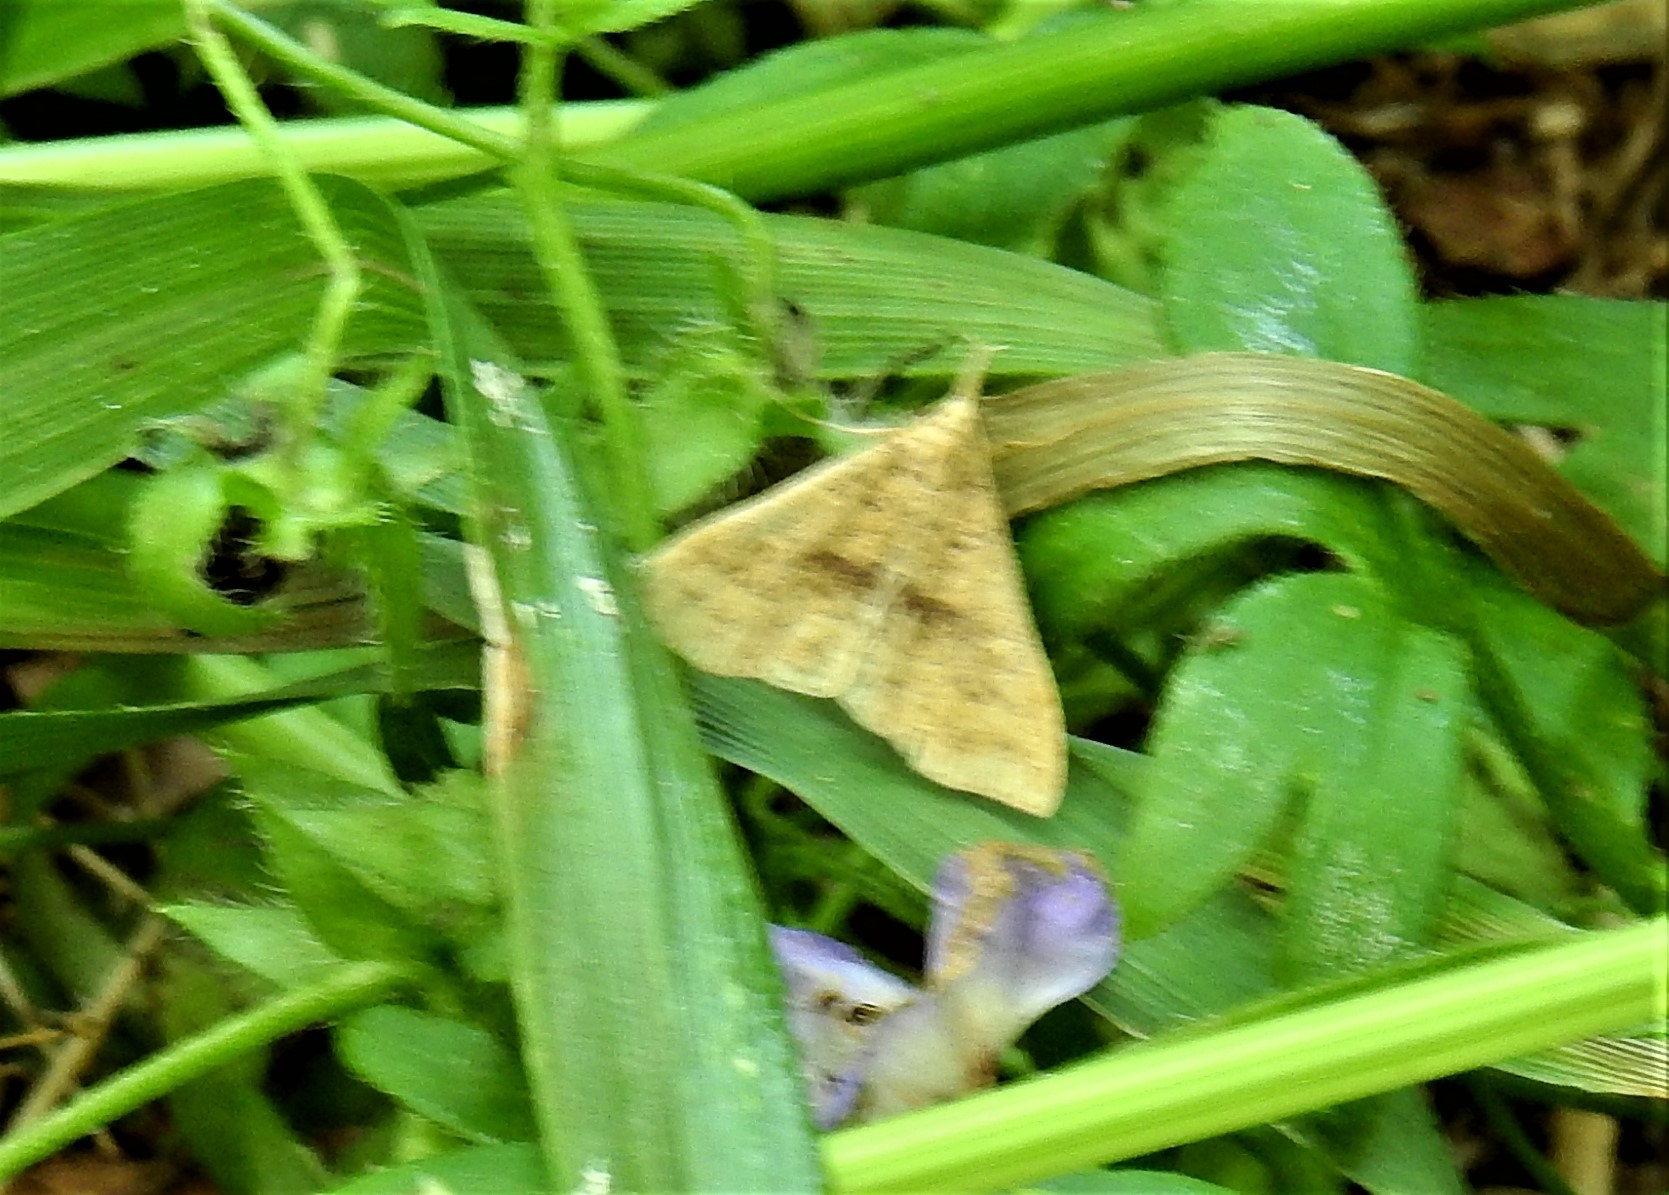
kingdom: Animalia
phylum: Arthropoda
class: Insecta
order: Lepidoptera
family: Erebidae
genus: Renia
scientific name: Renia adspergillus
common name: Speckled renia moth
